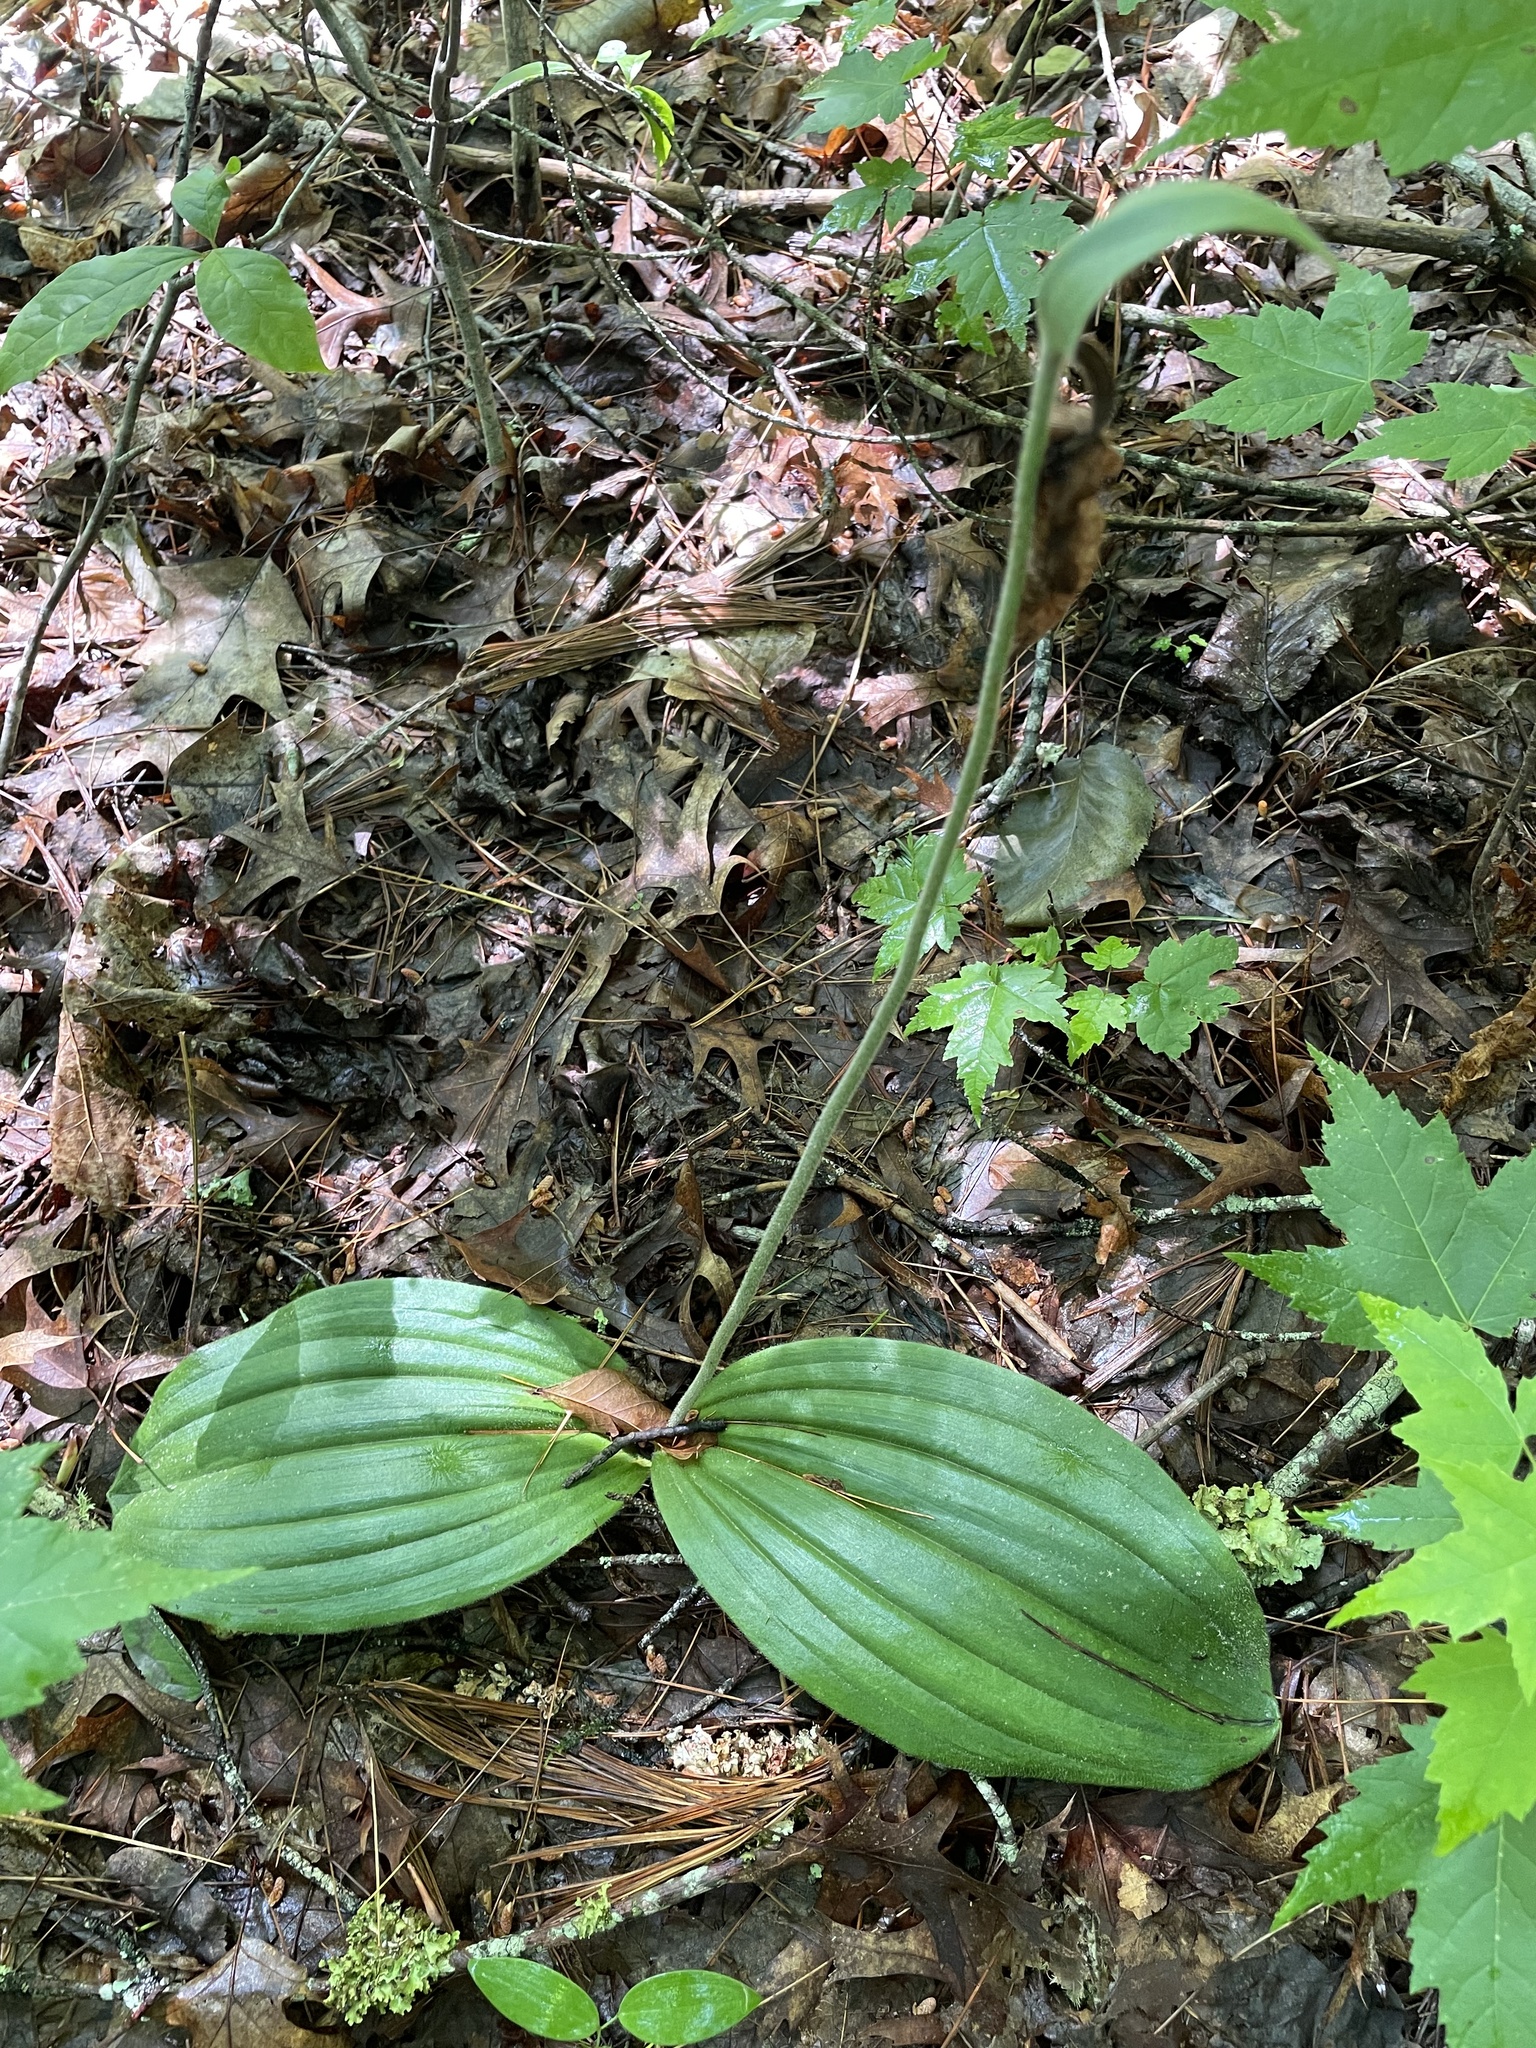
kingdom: Plantae
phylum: Tracheophyta
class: Liliopsida
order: Asparagales
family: Orchidaceae
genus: Cypripedium
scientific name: Cypripedium acaule
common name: Pink lady's-slipper
